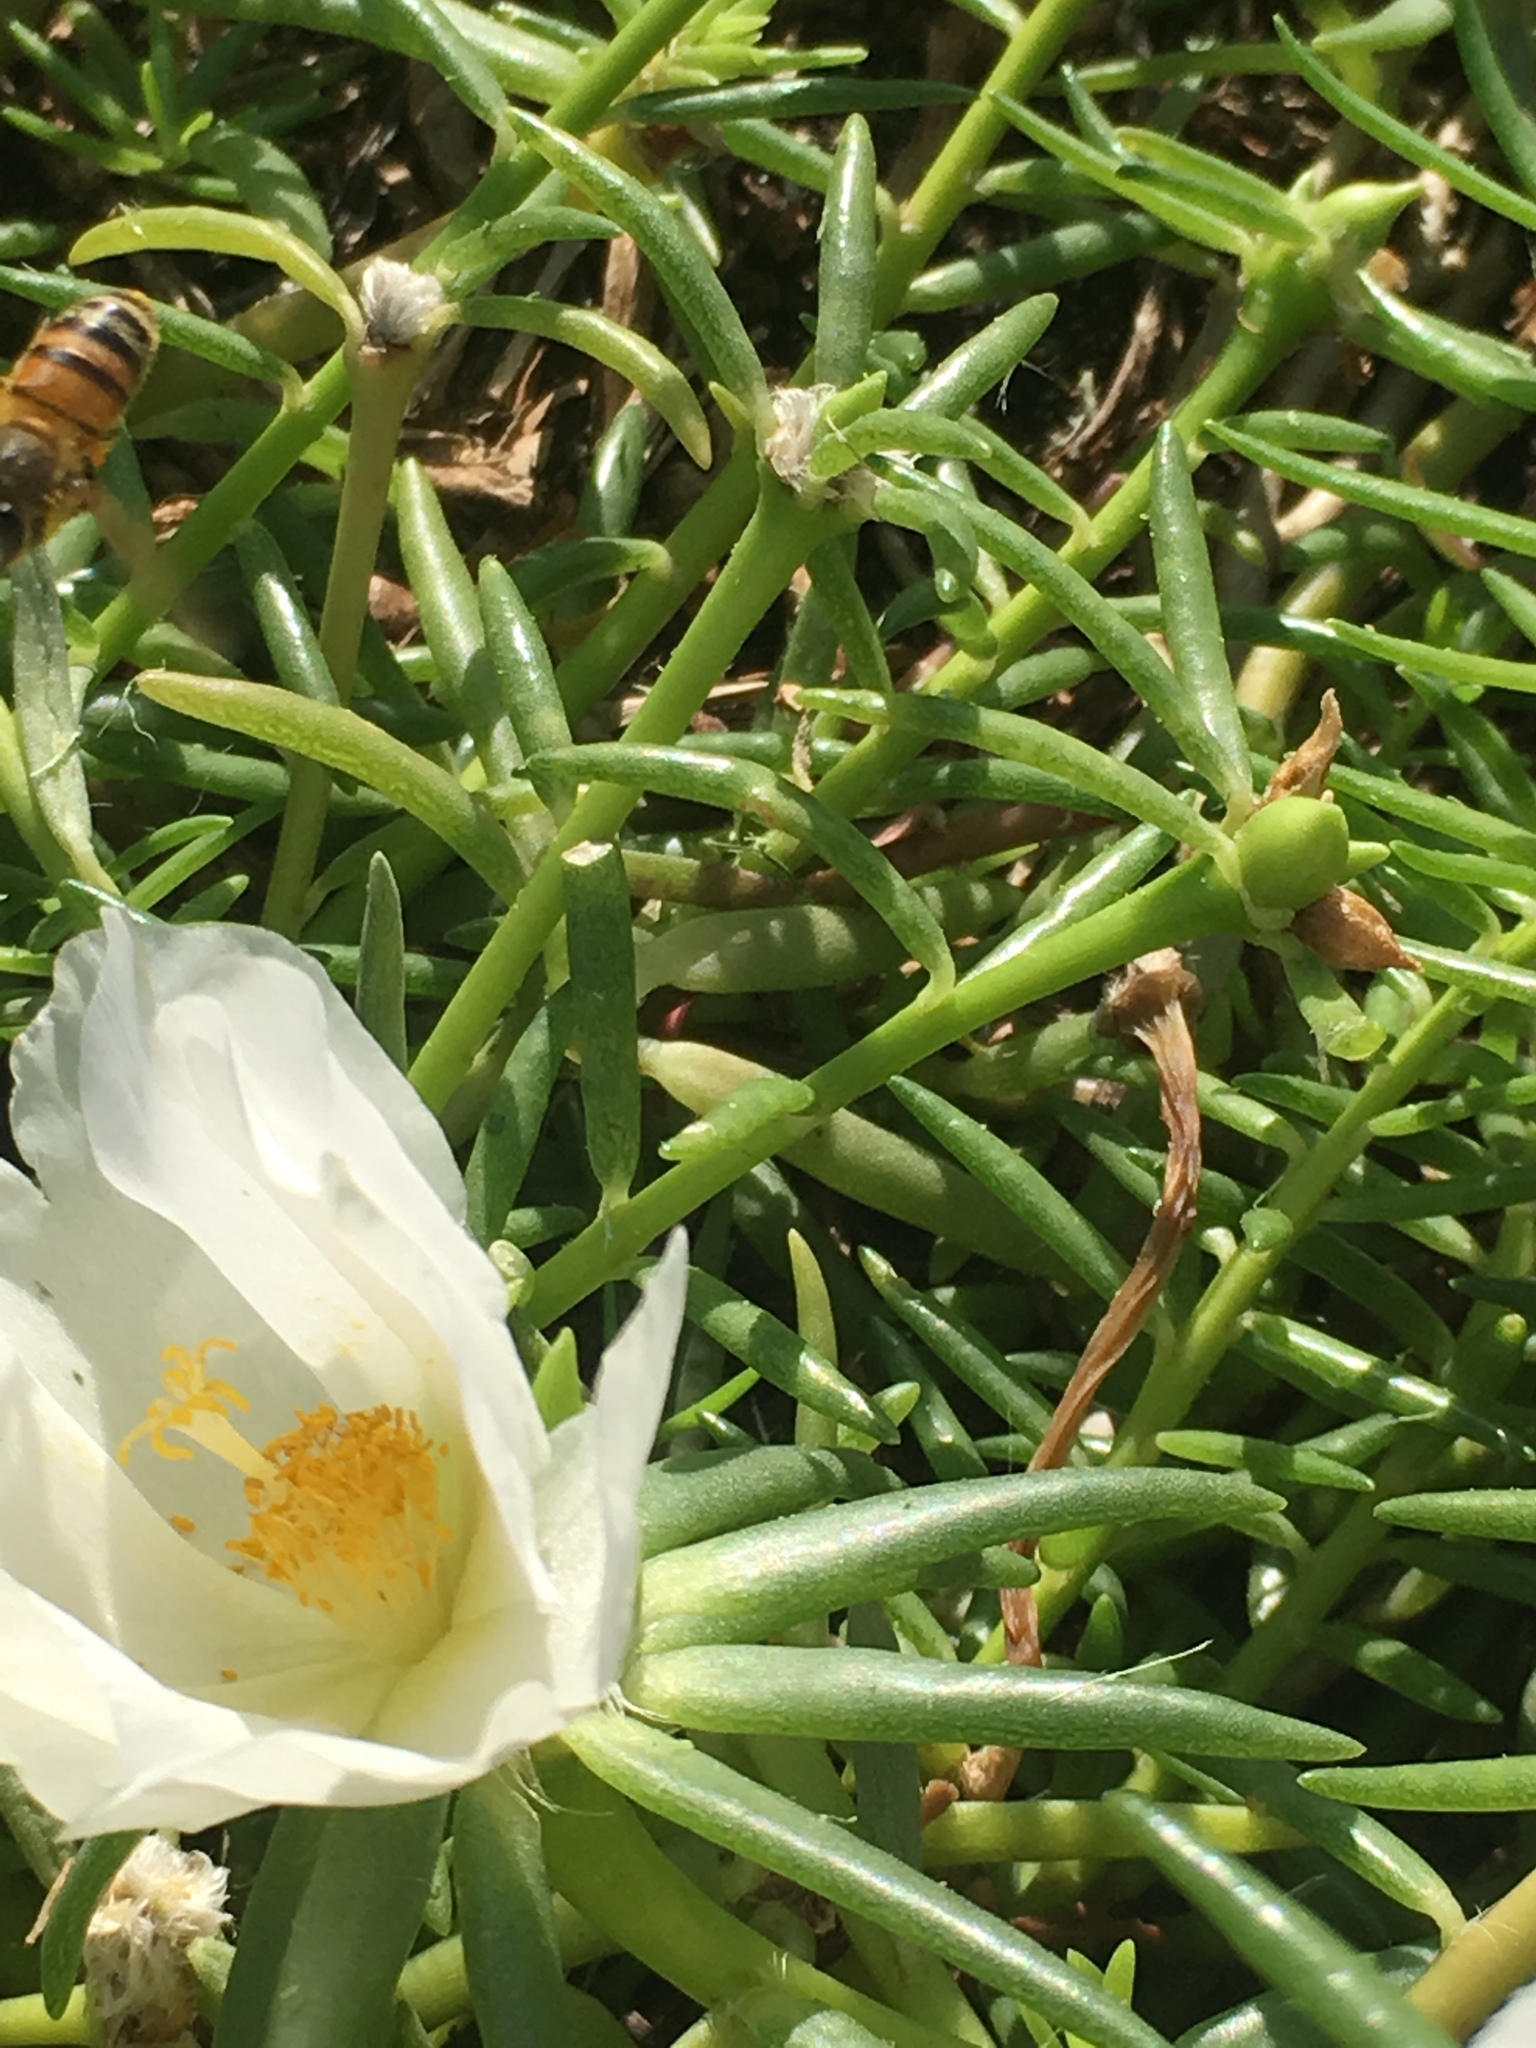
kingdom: Animalia
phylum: Arthropoda
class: Insecta
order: Hymenoptera
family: Apidae
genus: Apis
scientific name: Apis mellifera
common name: Honey bee
